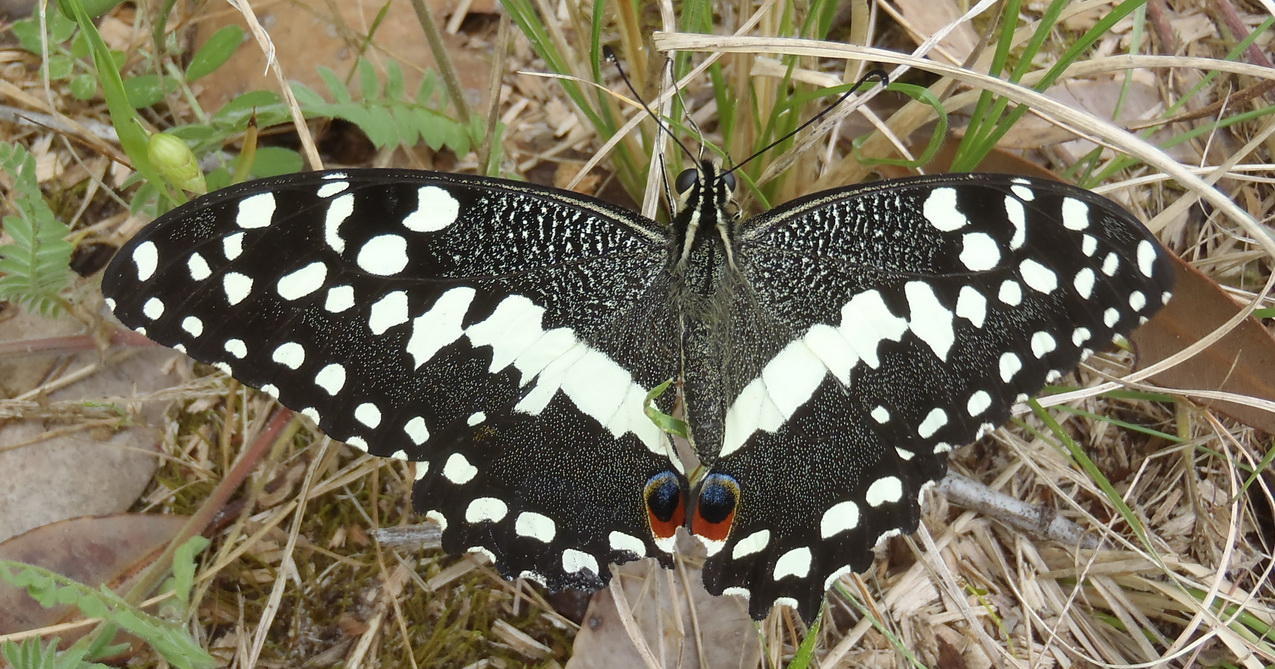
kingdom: Animalia
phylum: Arthropoda
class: Insecta
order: Lepidoptera
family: Papilionidae
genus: Papilio
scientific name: Papilio demodocus
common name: Christmas butterfly
